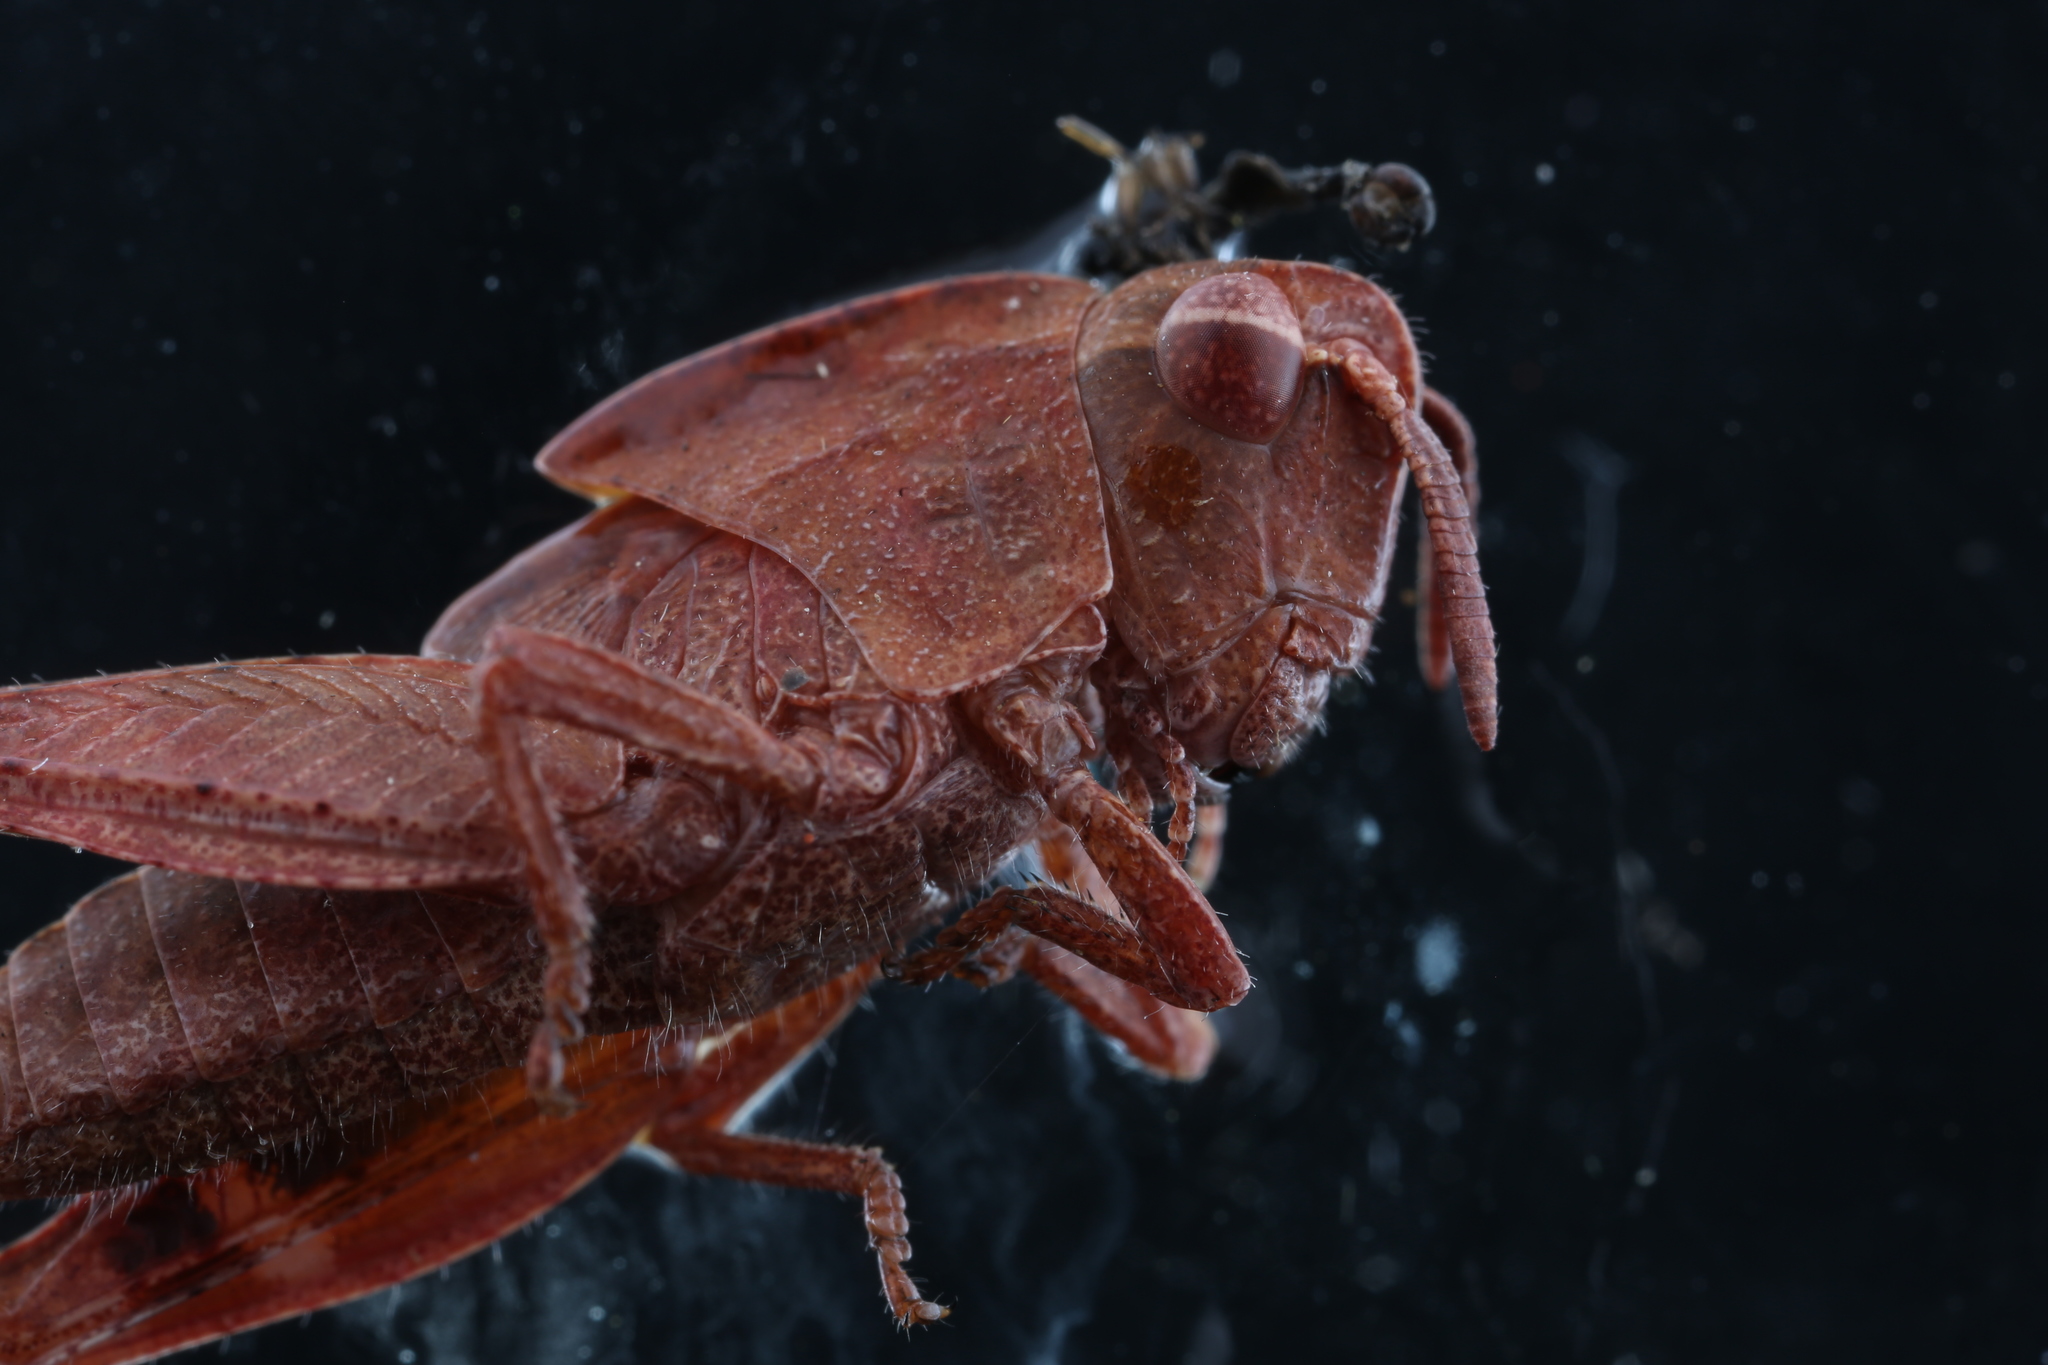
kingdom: Animalia
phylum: Arthropoda
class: Insecta
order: Orthoptera
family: Acrididae
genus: Chortophaga
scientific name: Chortophaga viridifasciata
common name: Green-striped grasshopper
